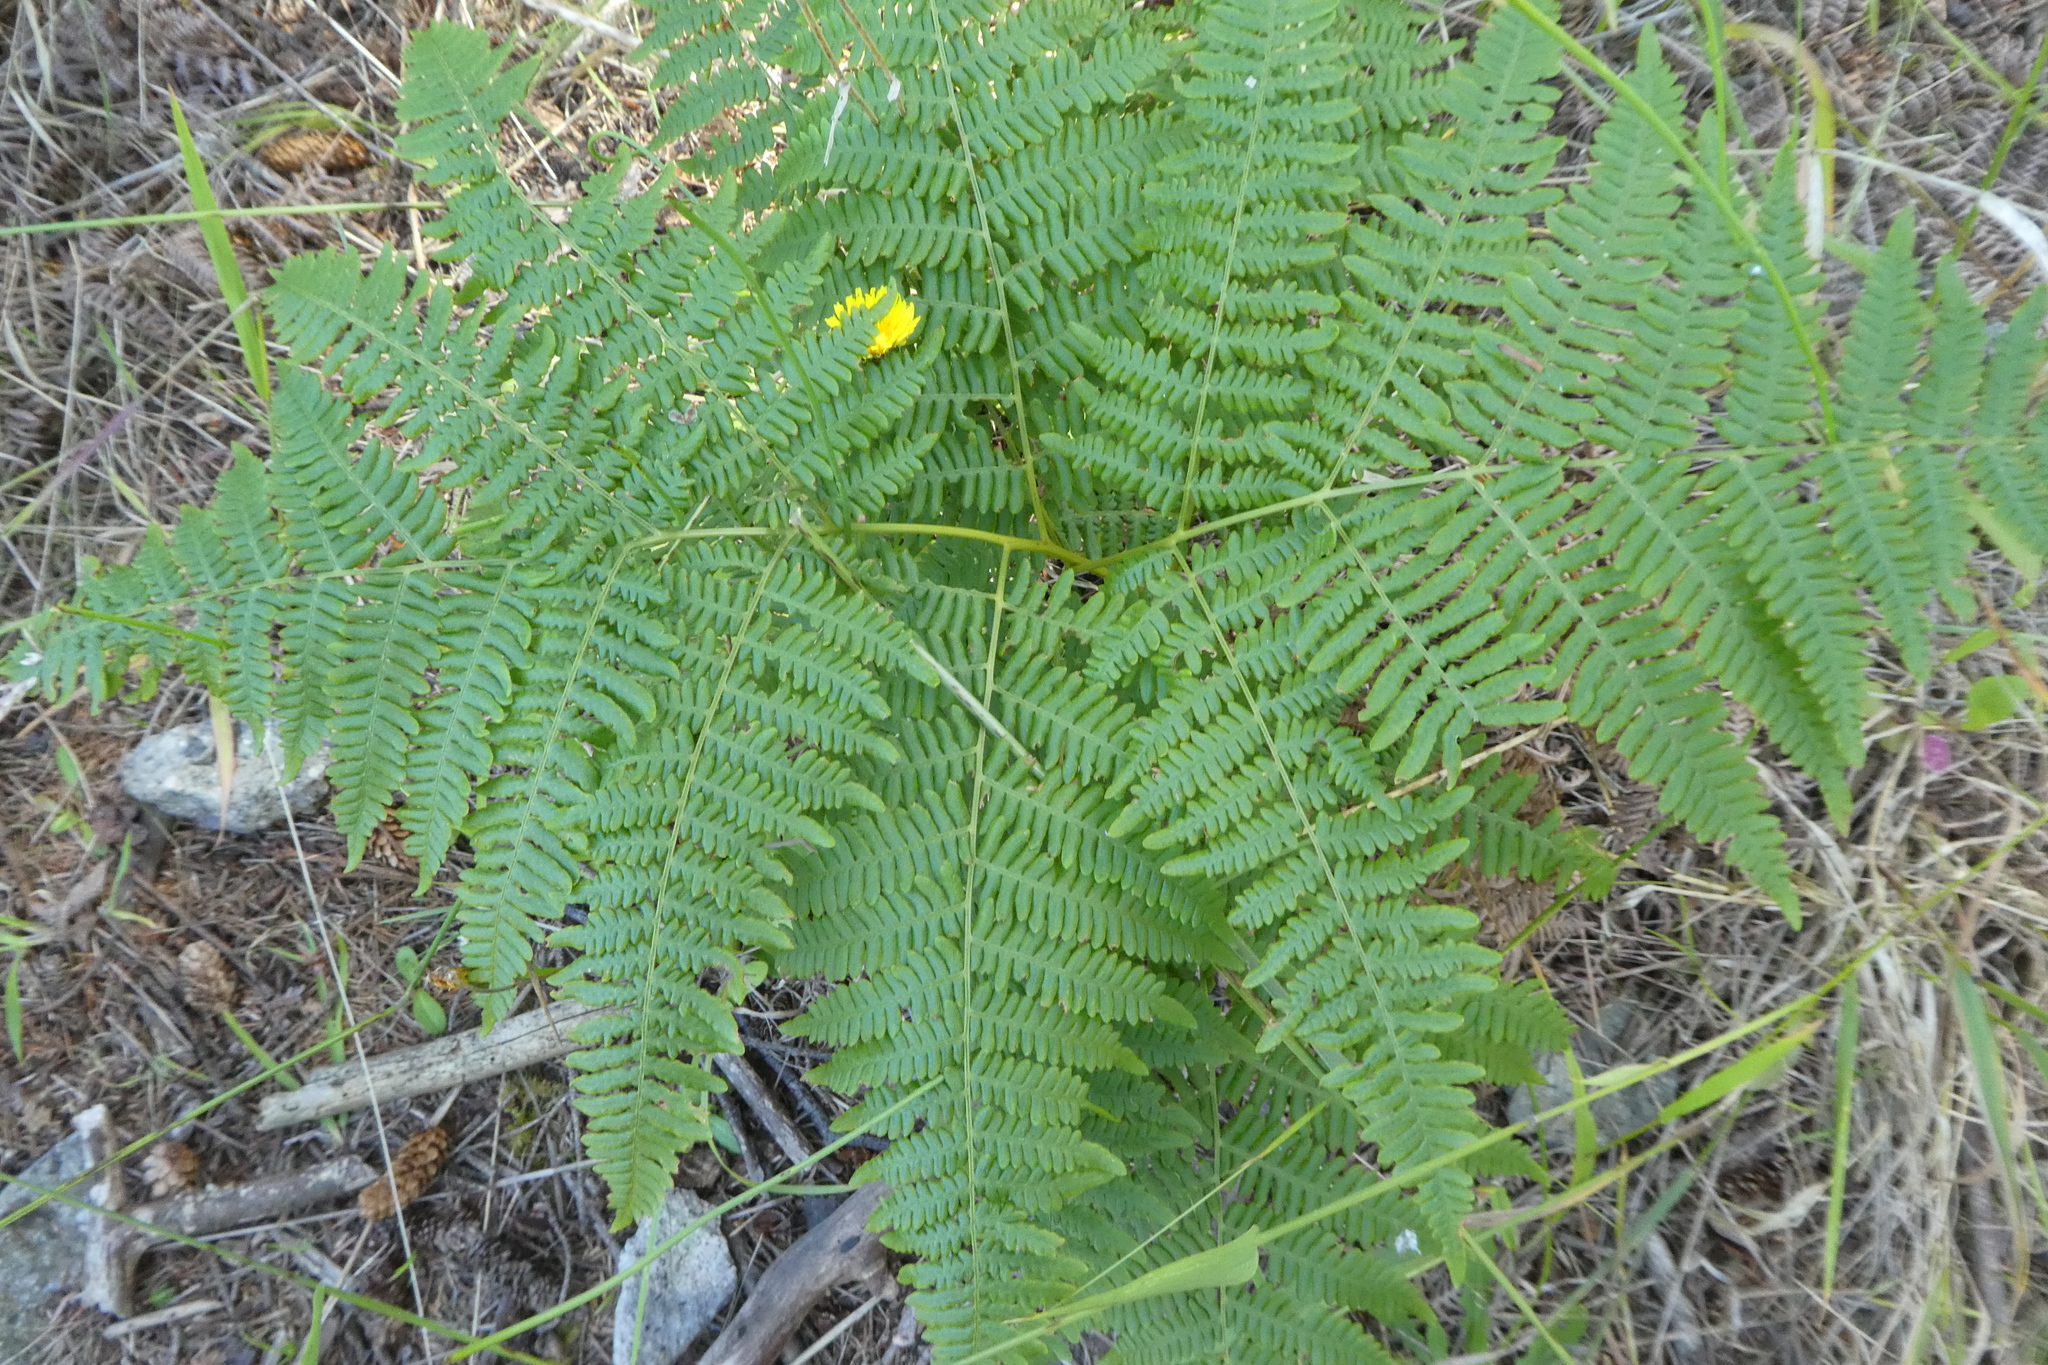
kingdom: Plantae
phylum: Tracheophyta
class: Polypodiopsida
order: Polypodiales
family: Dennstaedtiaceae
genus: Pteridium
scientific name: Pteridium aquilinum
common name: Bracken
